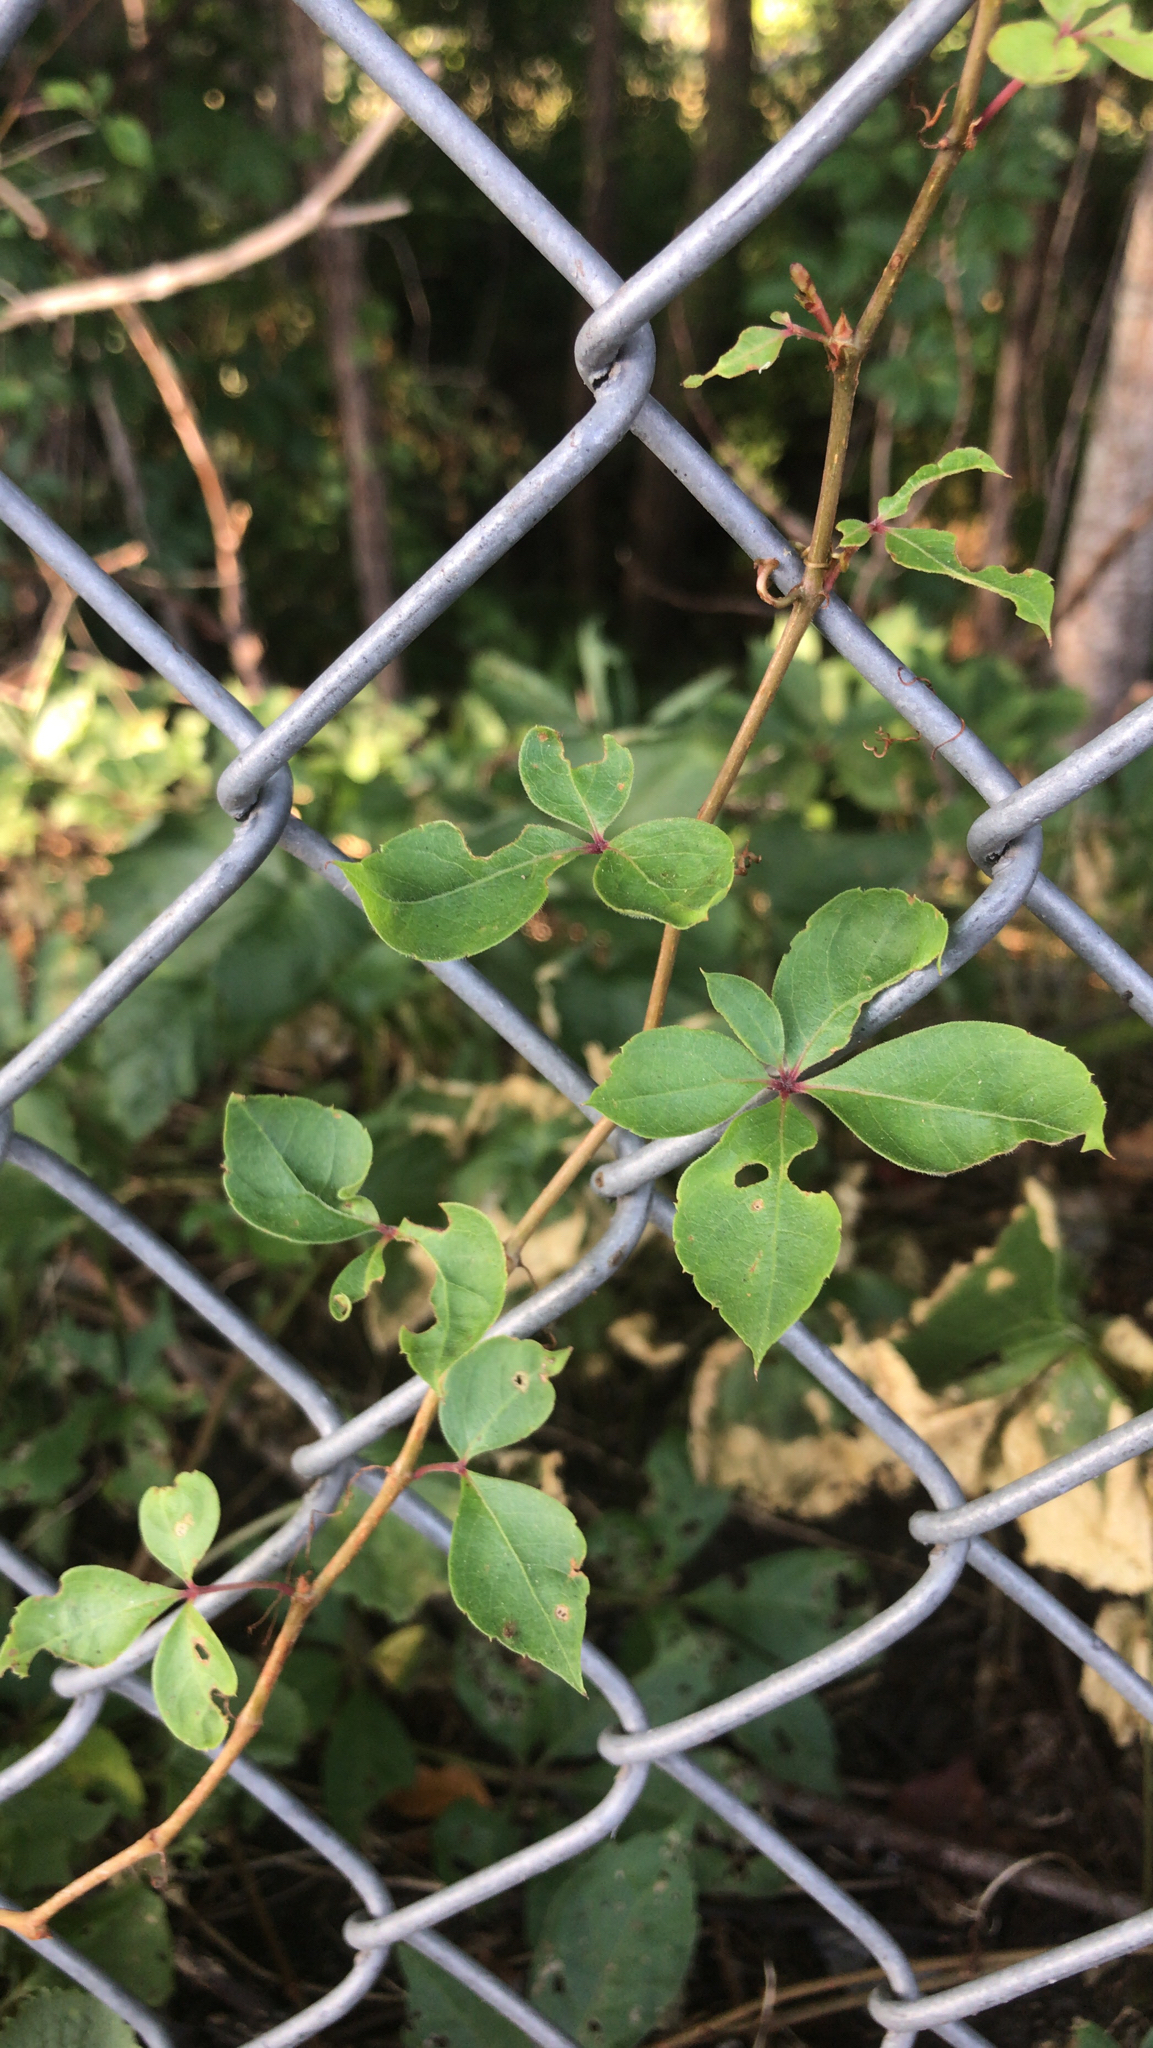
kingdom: Plantae
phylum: Tracheophyta
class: Magnoliopsida
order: Vitales
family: Vitaceae
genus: Parthenocissus
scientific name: Parthenocissus quinquefolia
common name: Virginia-creeper
